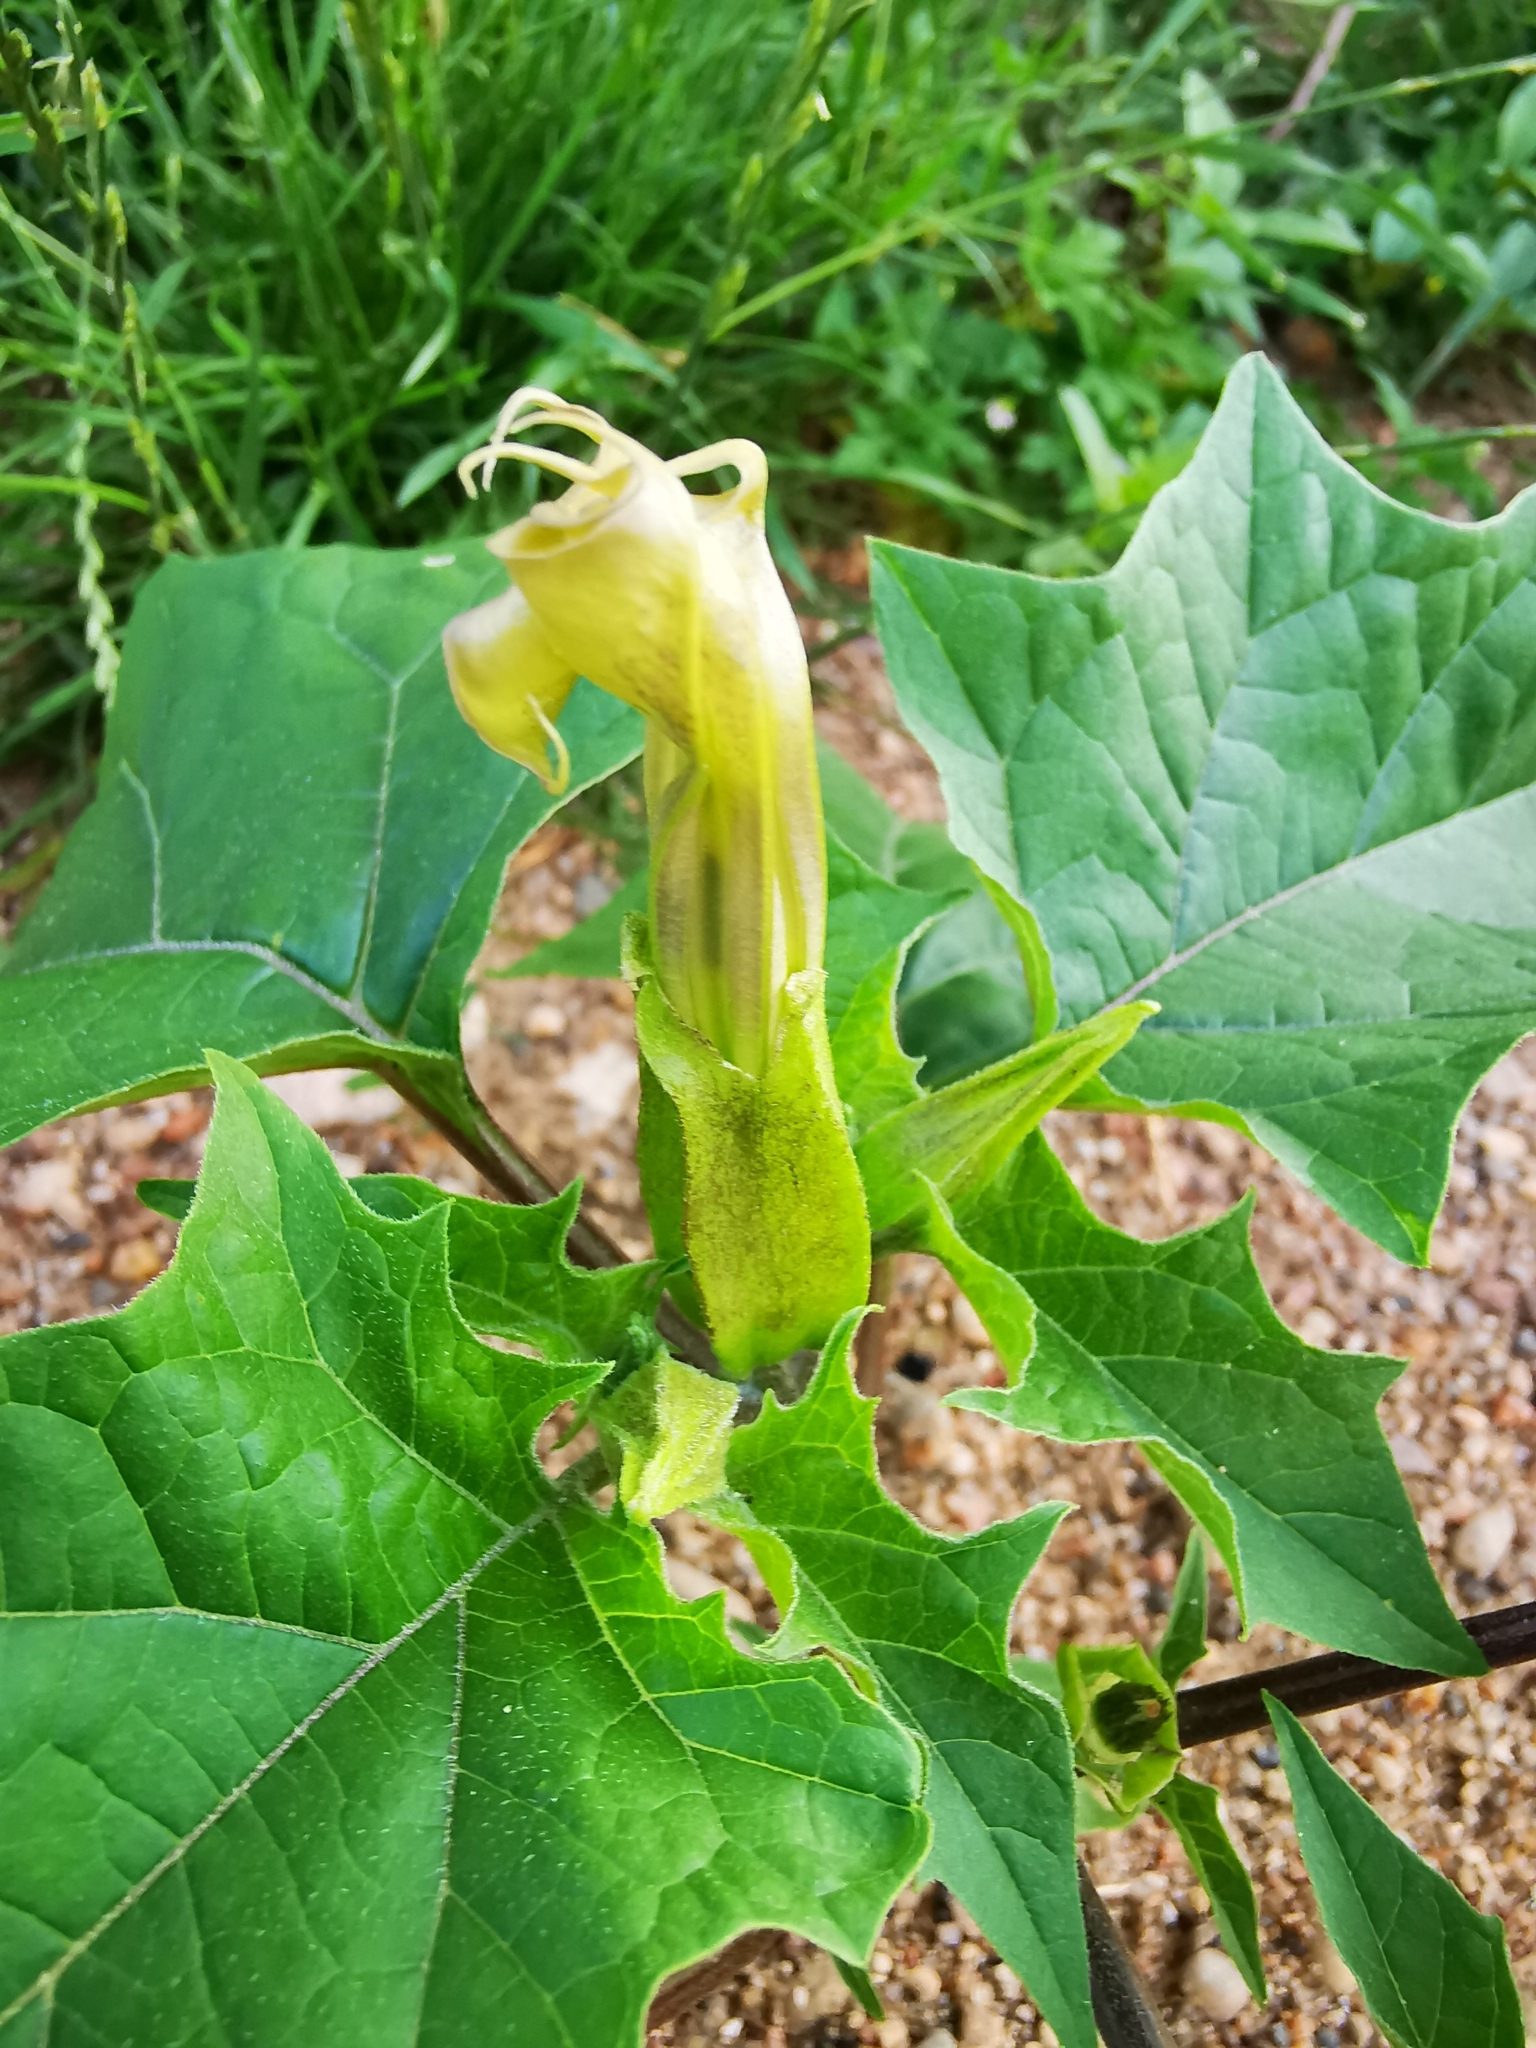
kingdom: Plantae
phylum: Tracheophyta
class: Magnoliopsida
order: Solanales
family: Solanaceae
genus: Datura
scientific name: Datura stramonium
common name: Thorn-apple
